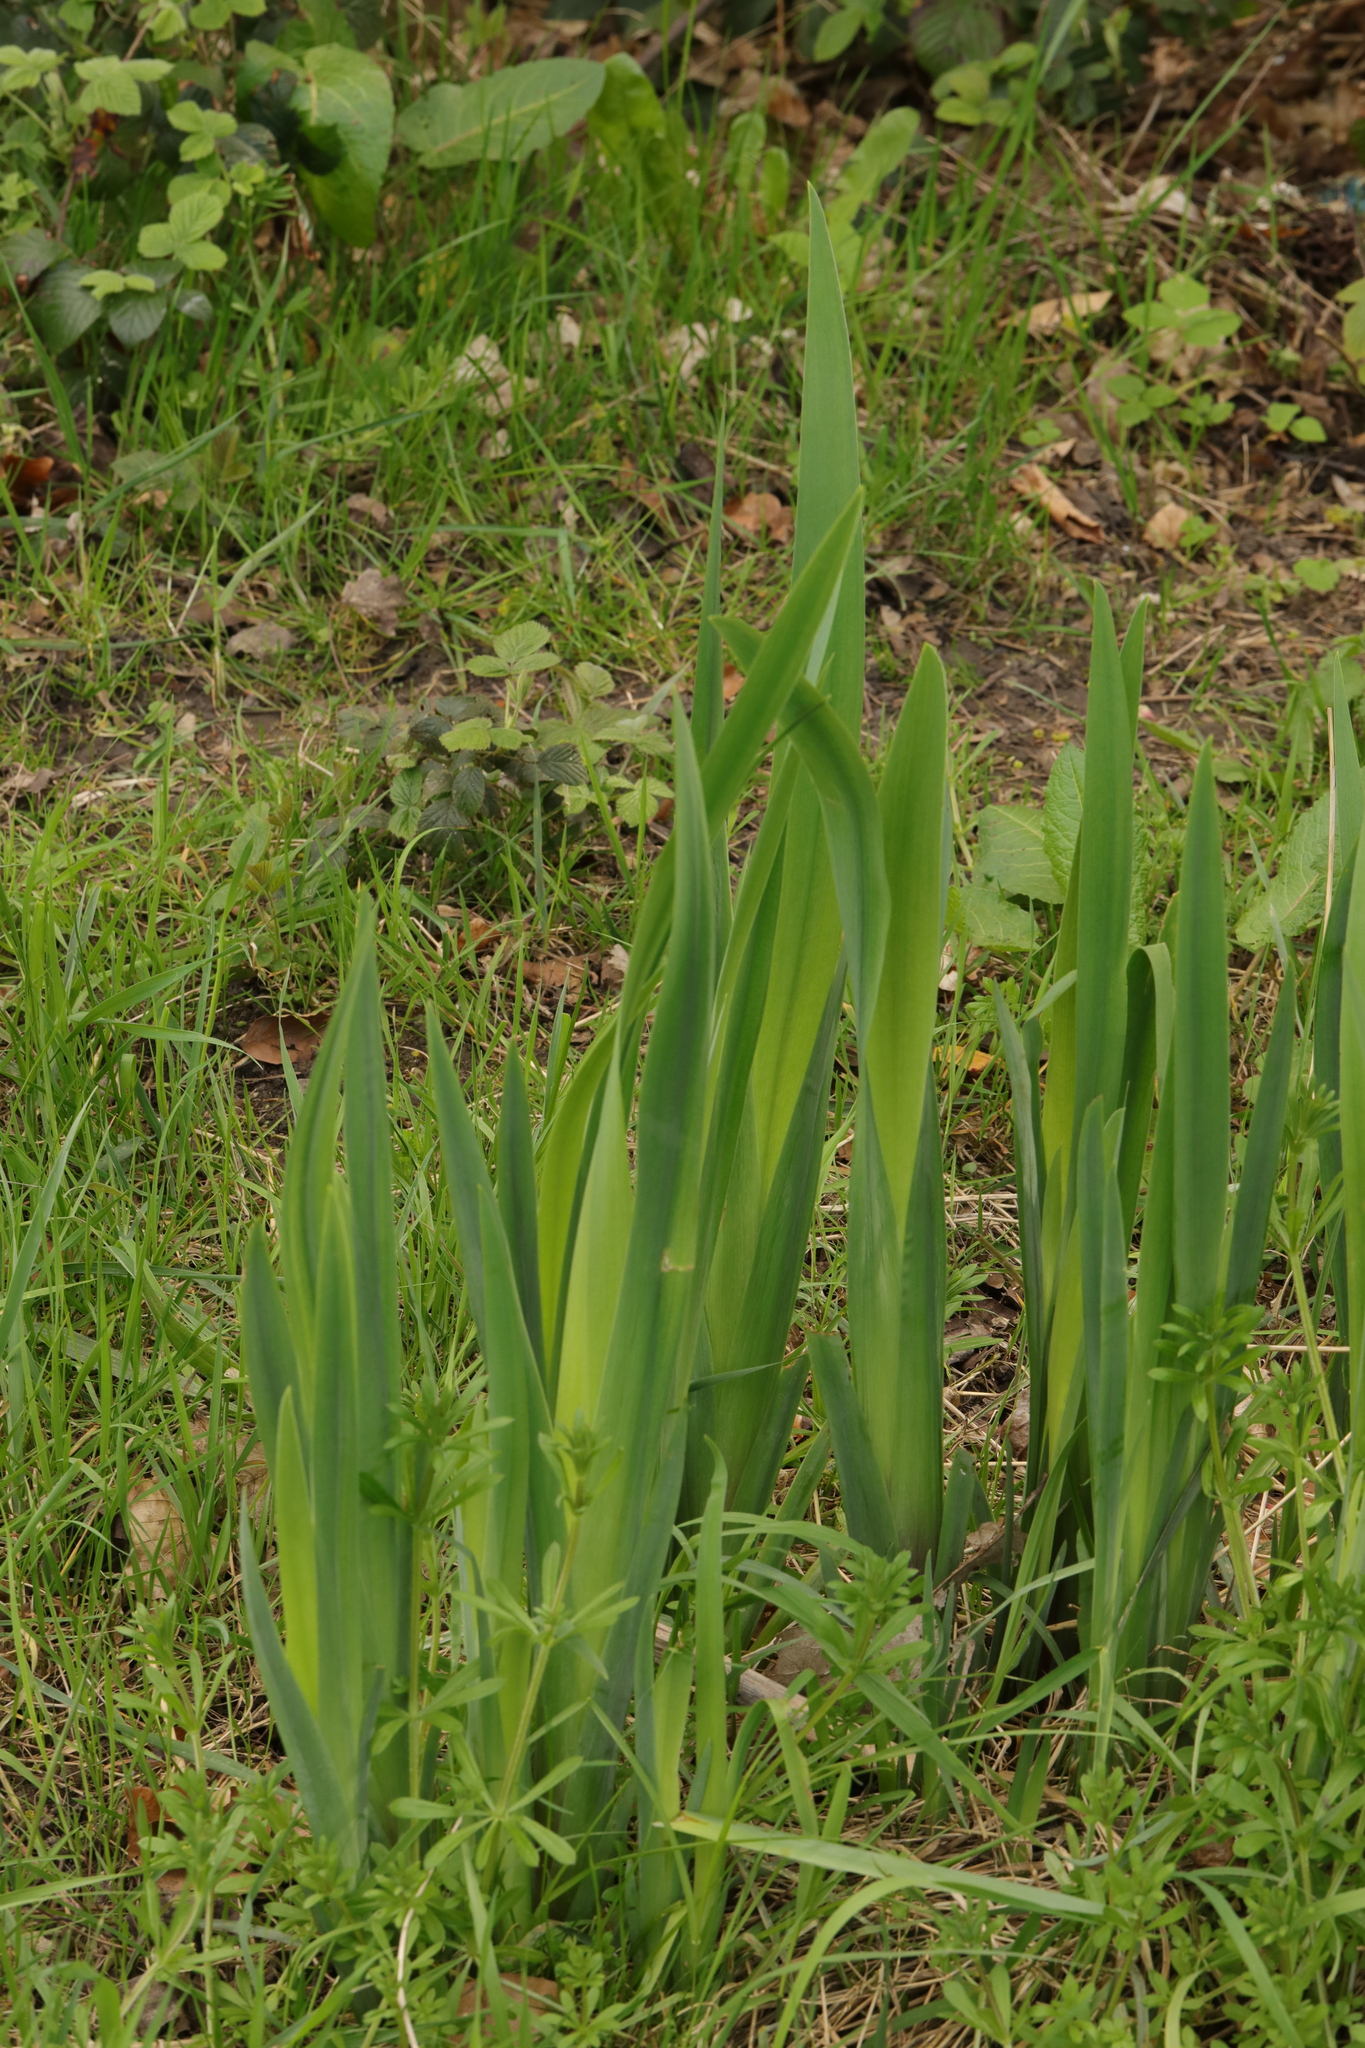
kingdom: Plantae
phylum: Tracheophyta
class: Liliopsida
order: Asparagales
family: Iridaceae
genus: Iris
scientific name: Iris pseudacorus
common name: Yellow flag
